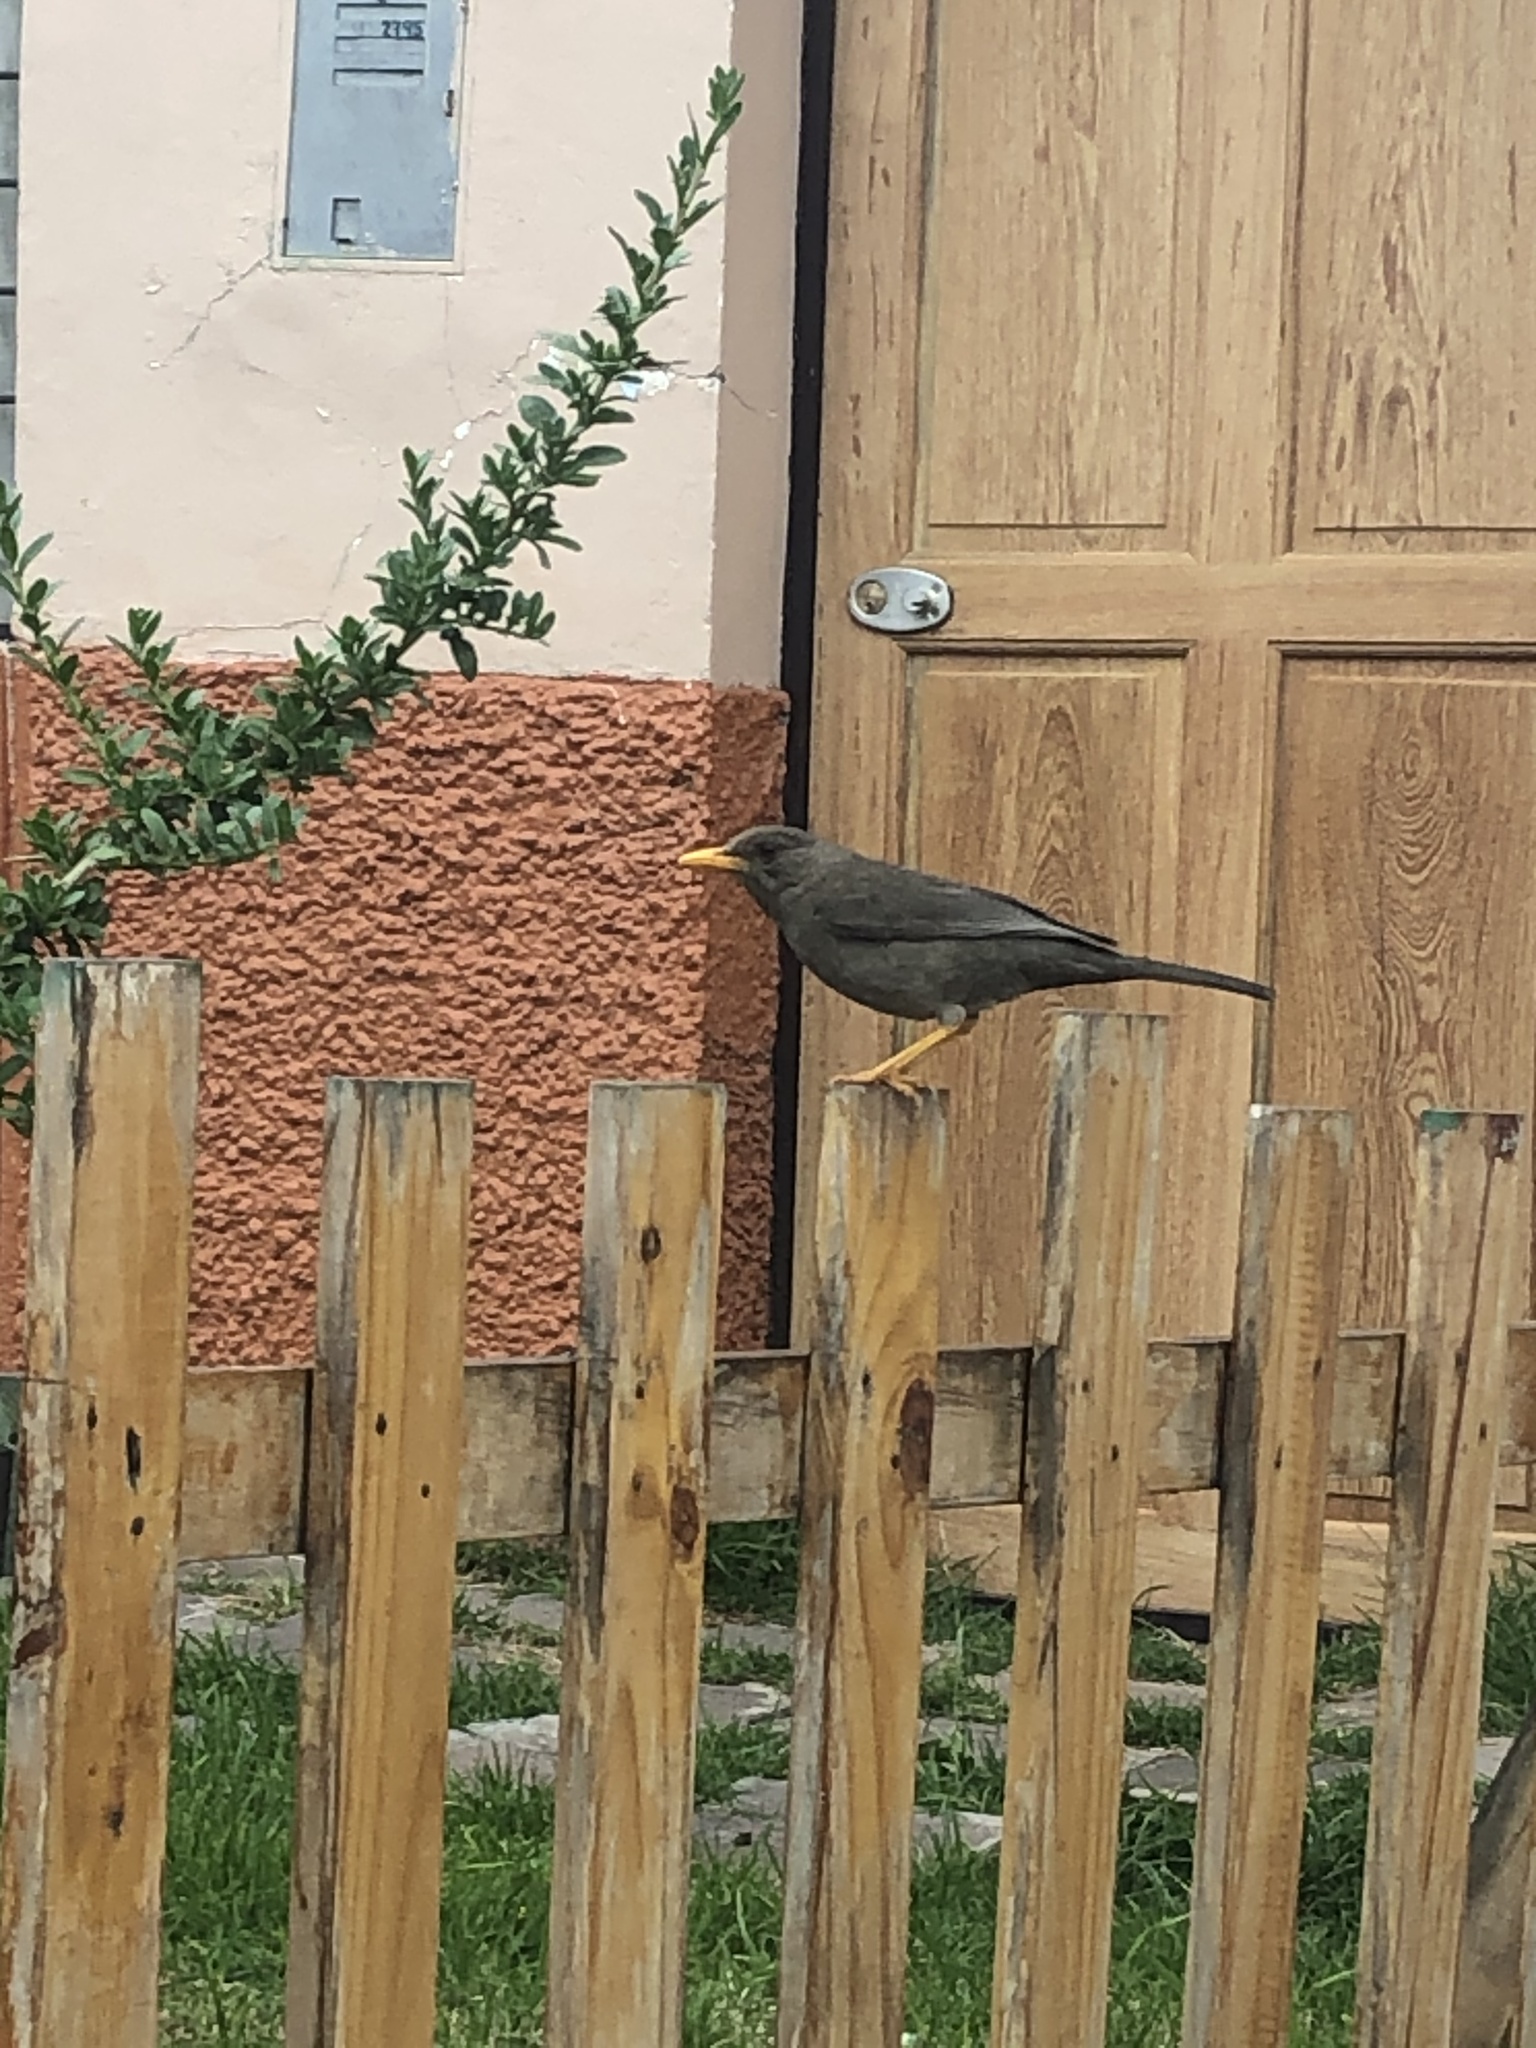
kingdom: Animalia
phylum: Chordata
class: Aves
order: Passeriformes
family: Turdidae
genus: Turdus
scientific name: Turdus chiguanco
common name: Chiguanco thrush
